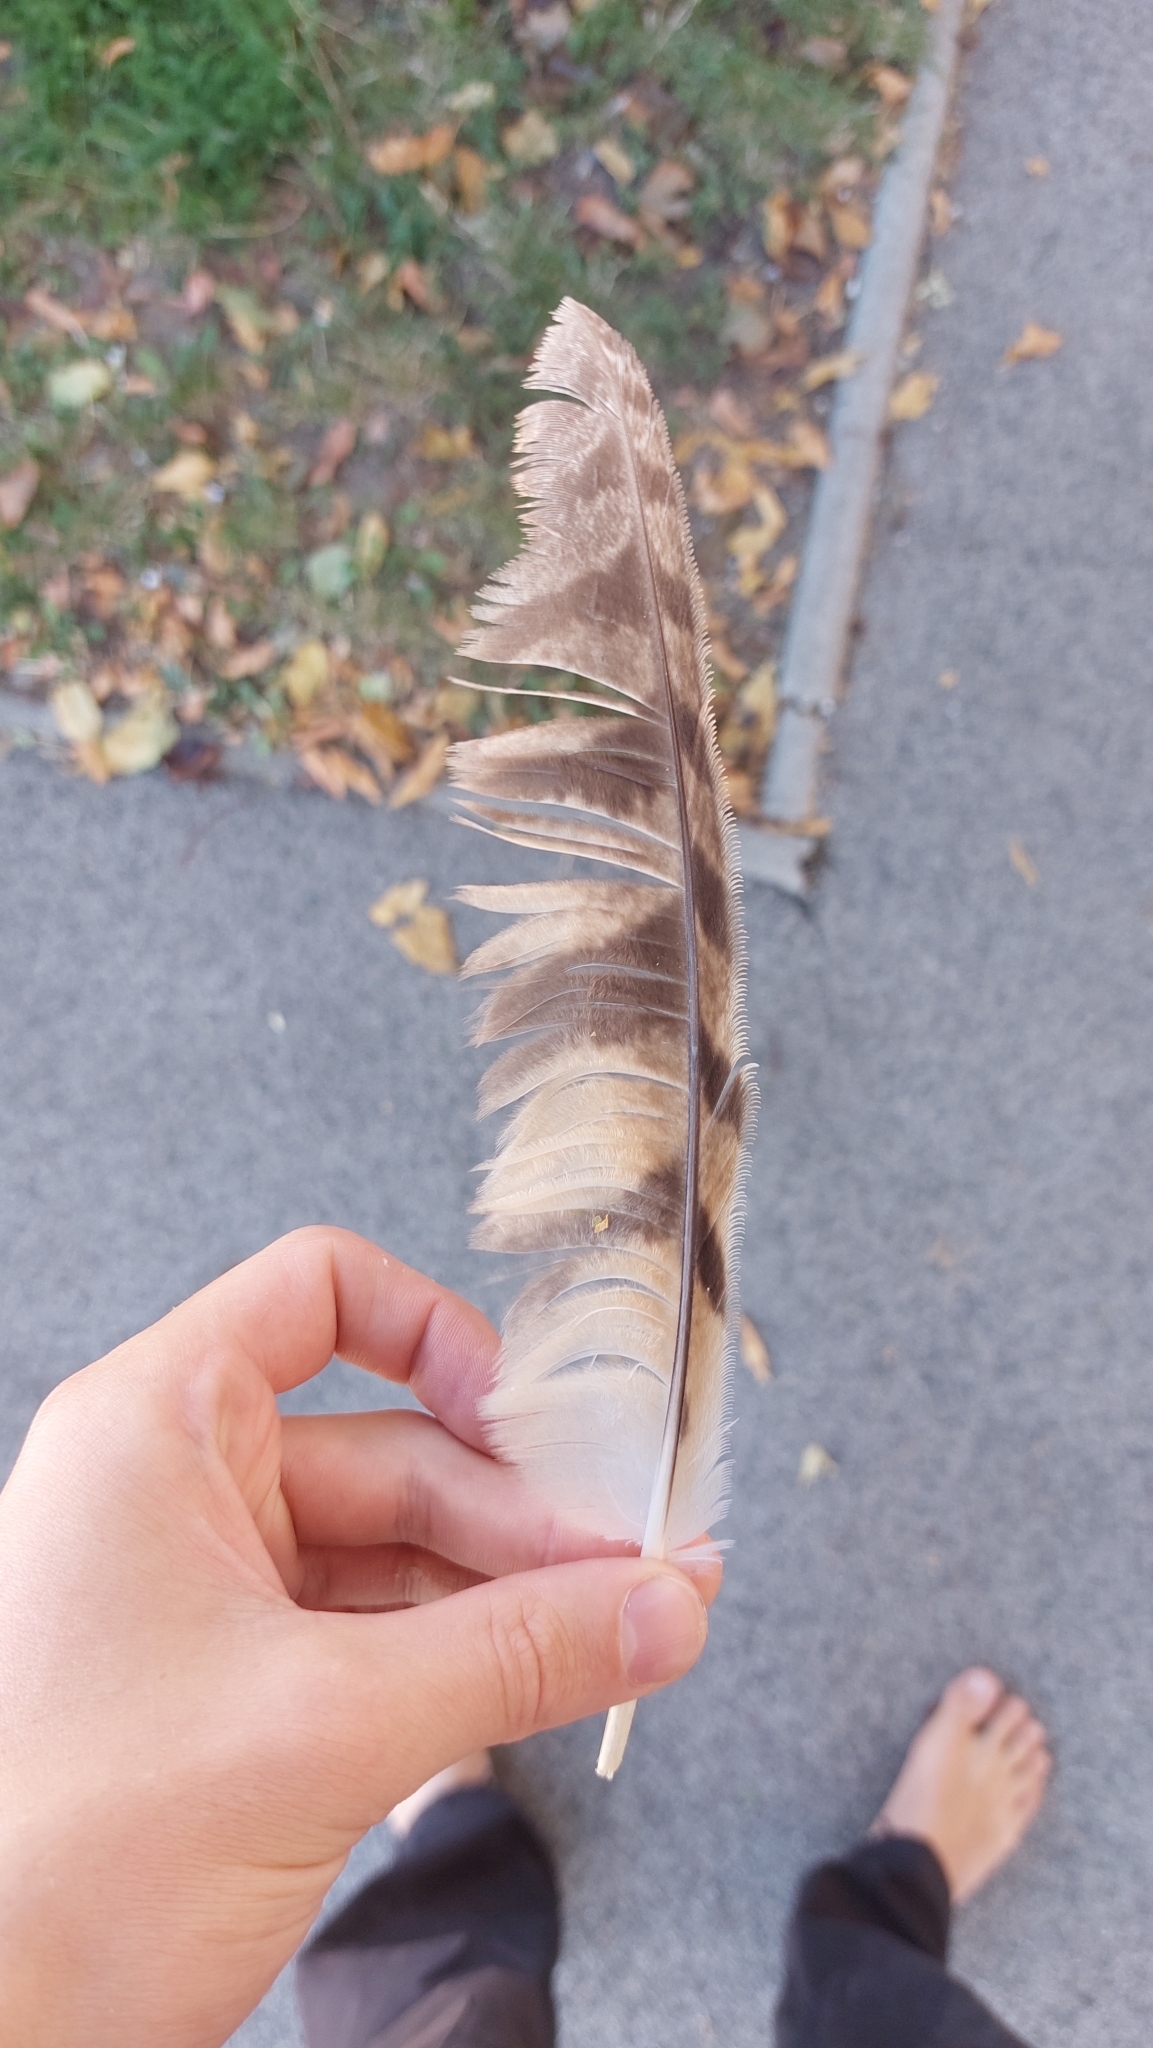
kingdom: Animalia
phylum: Chordata
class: Aves
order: Strigiformes
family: Strigidae
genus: Asio
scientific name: Asio otus
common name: Long-eared owl
